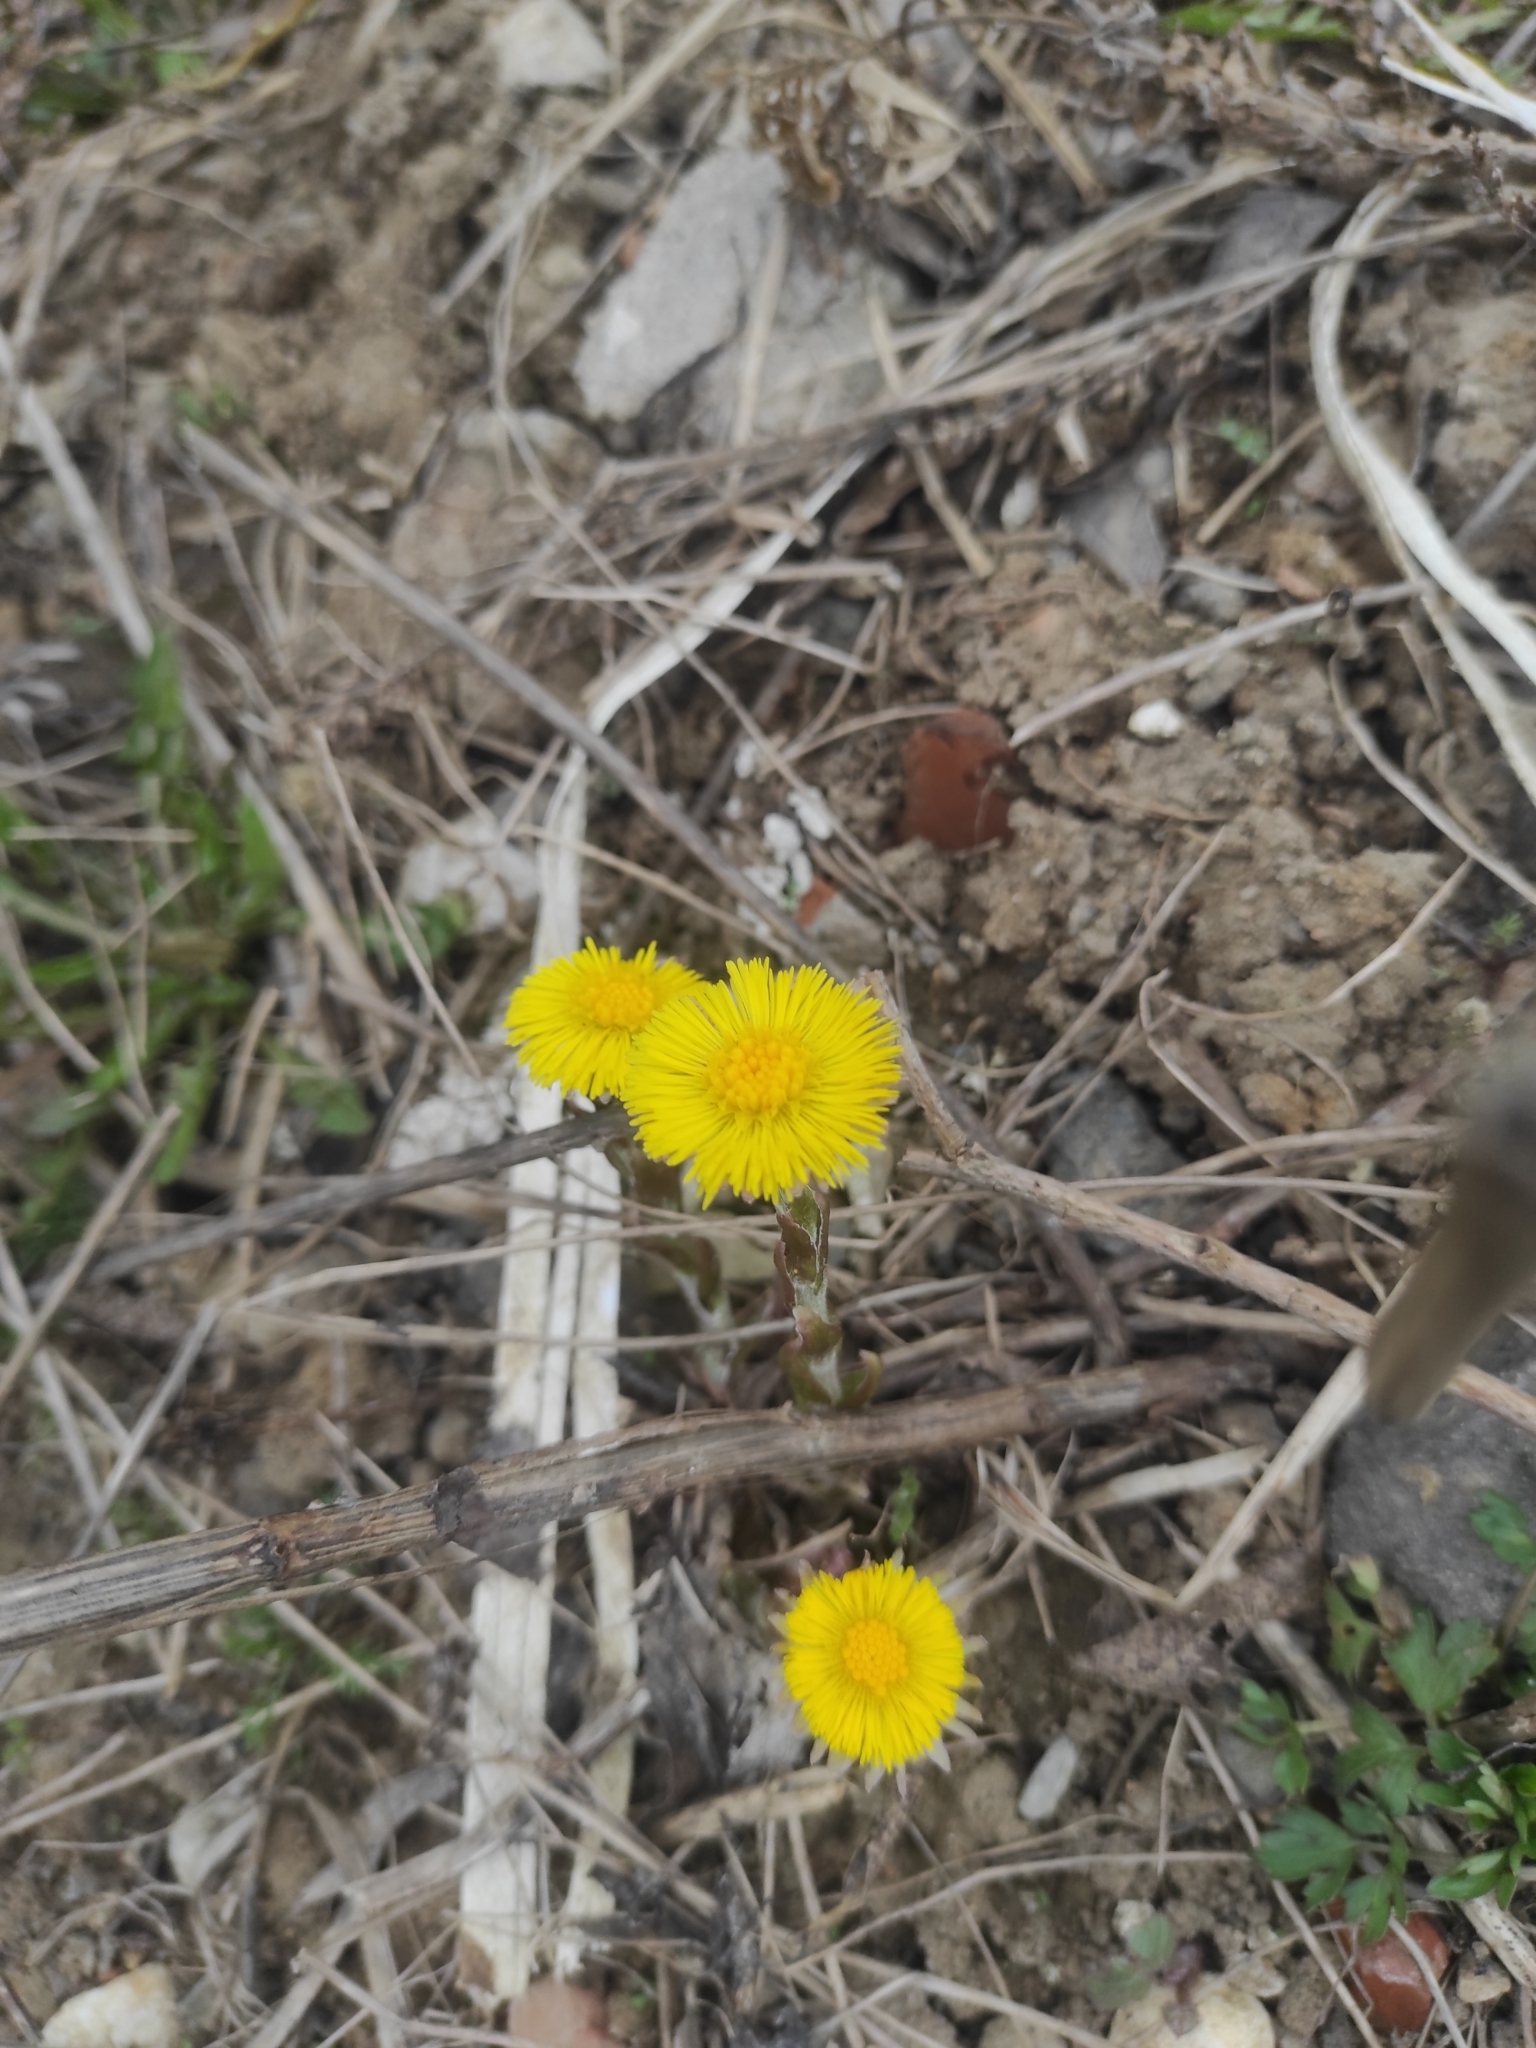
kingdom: Plantae
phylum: Tracheophyta
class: Magnoliopsida
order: Asterales
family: Asteraceae
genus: Tussilago
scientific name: Tussilago farfara
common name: Coltsfoot
